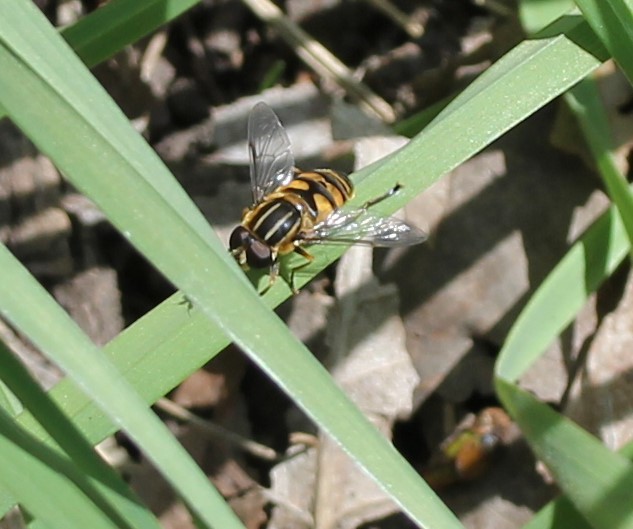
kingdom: Animalia
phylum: Arthropoda
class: Insecta
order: Diptera
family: Syrphidae
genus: Helophilus
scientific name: Helophilus fasciatus
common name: Narrow-headed marsh fly
